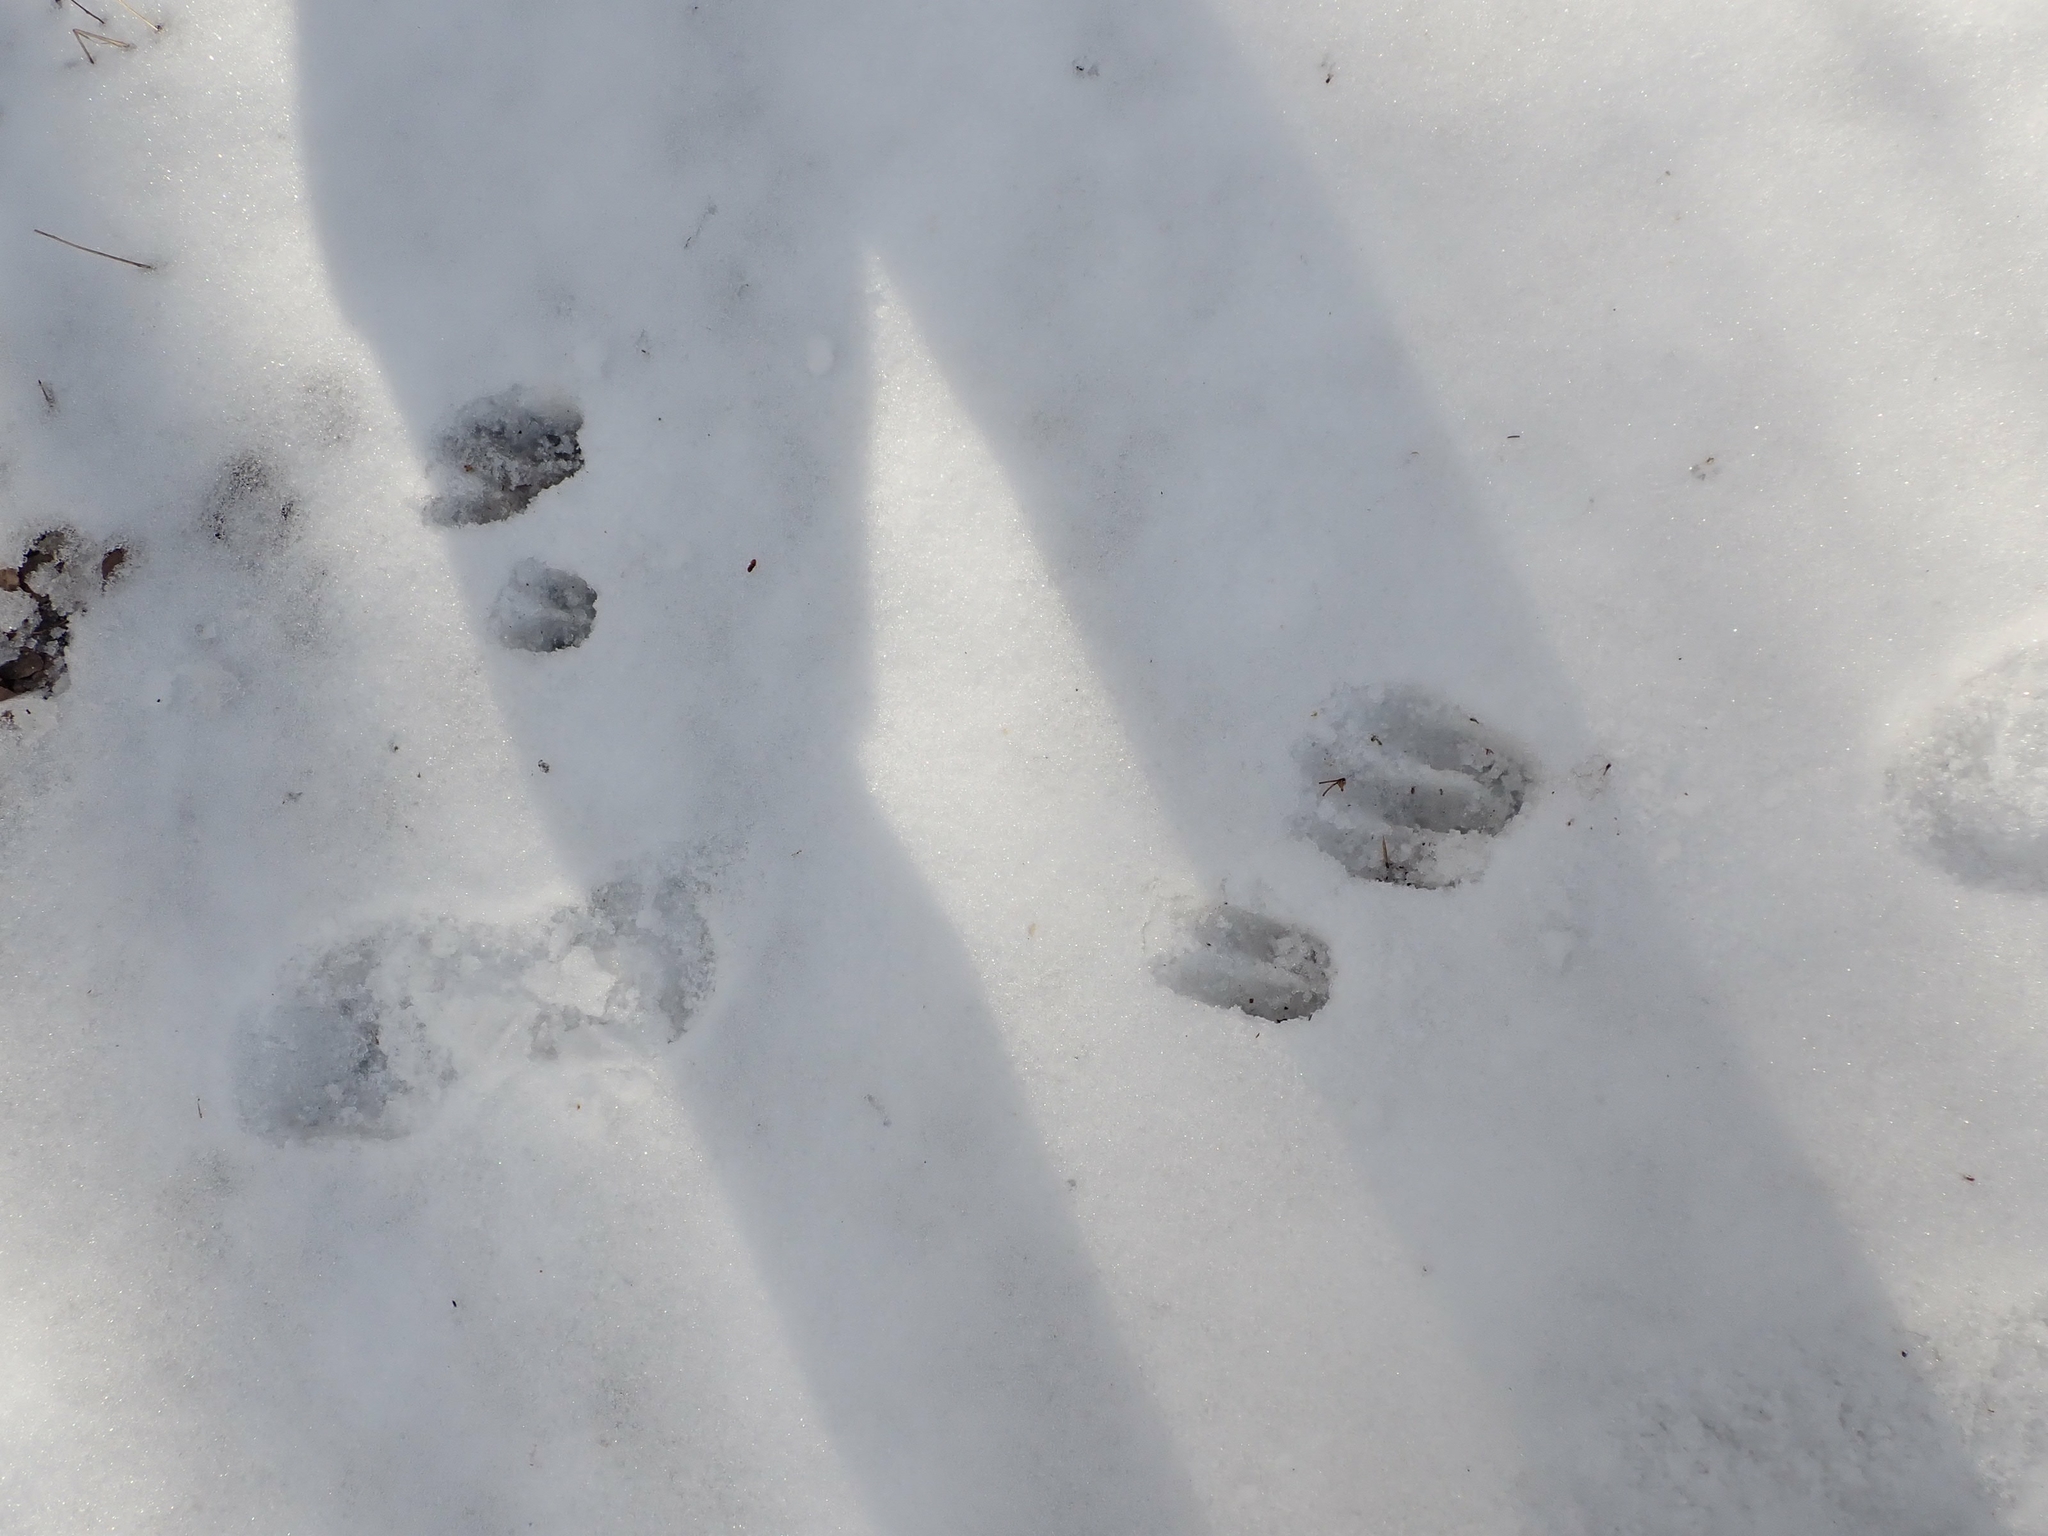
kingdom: Animalia
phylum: Chordata
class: Mammalia
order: Artiodactyla
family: Cervidae
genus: Odocoileus
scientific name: Odocoileus virginianus
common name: White-tailed deer
